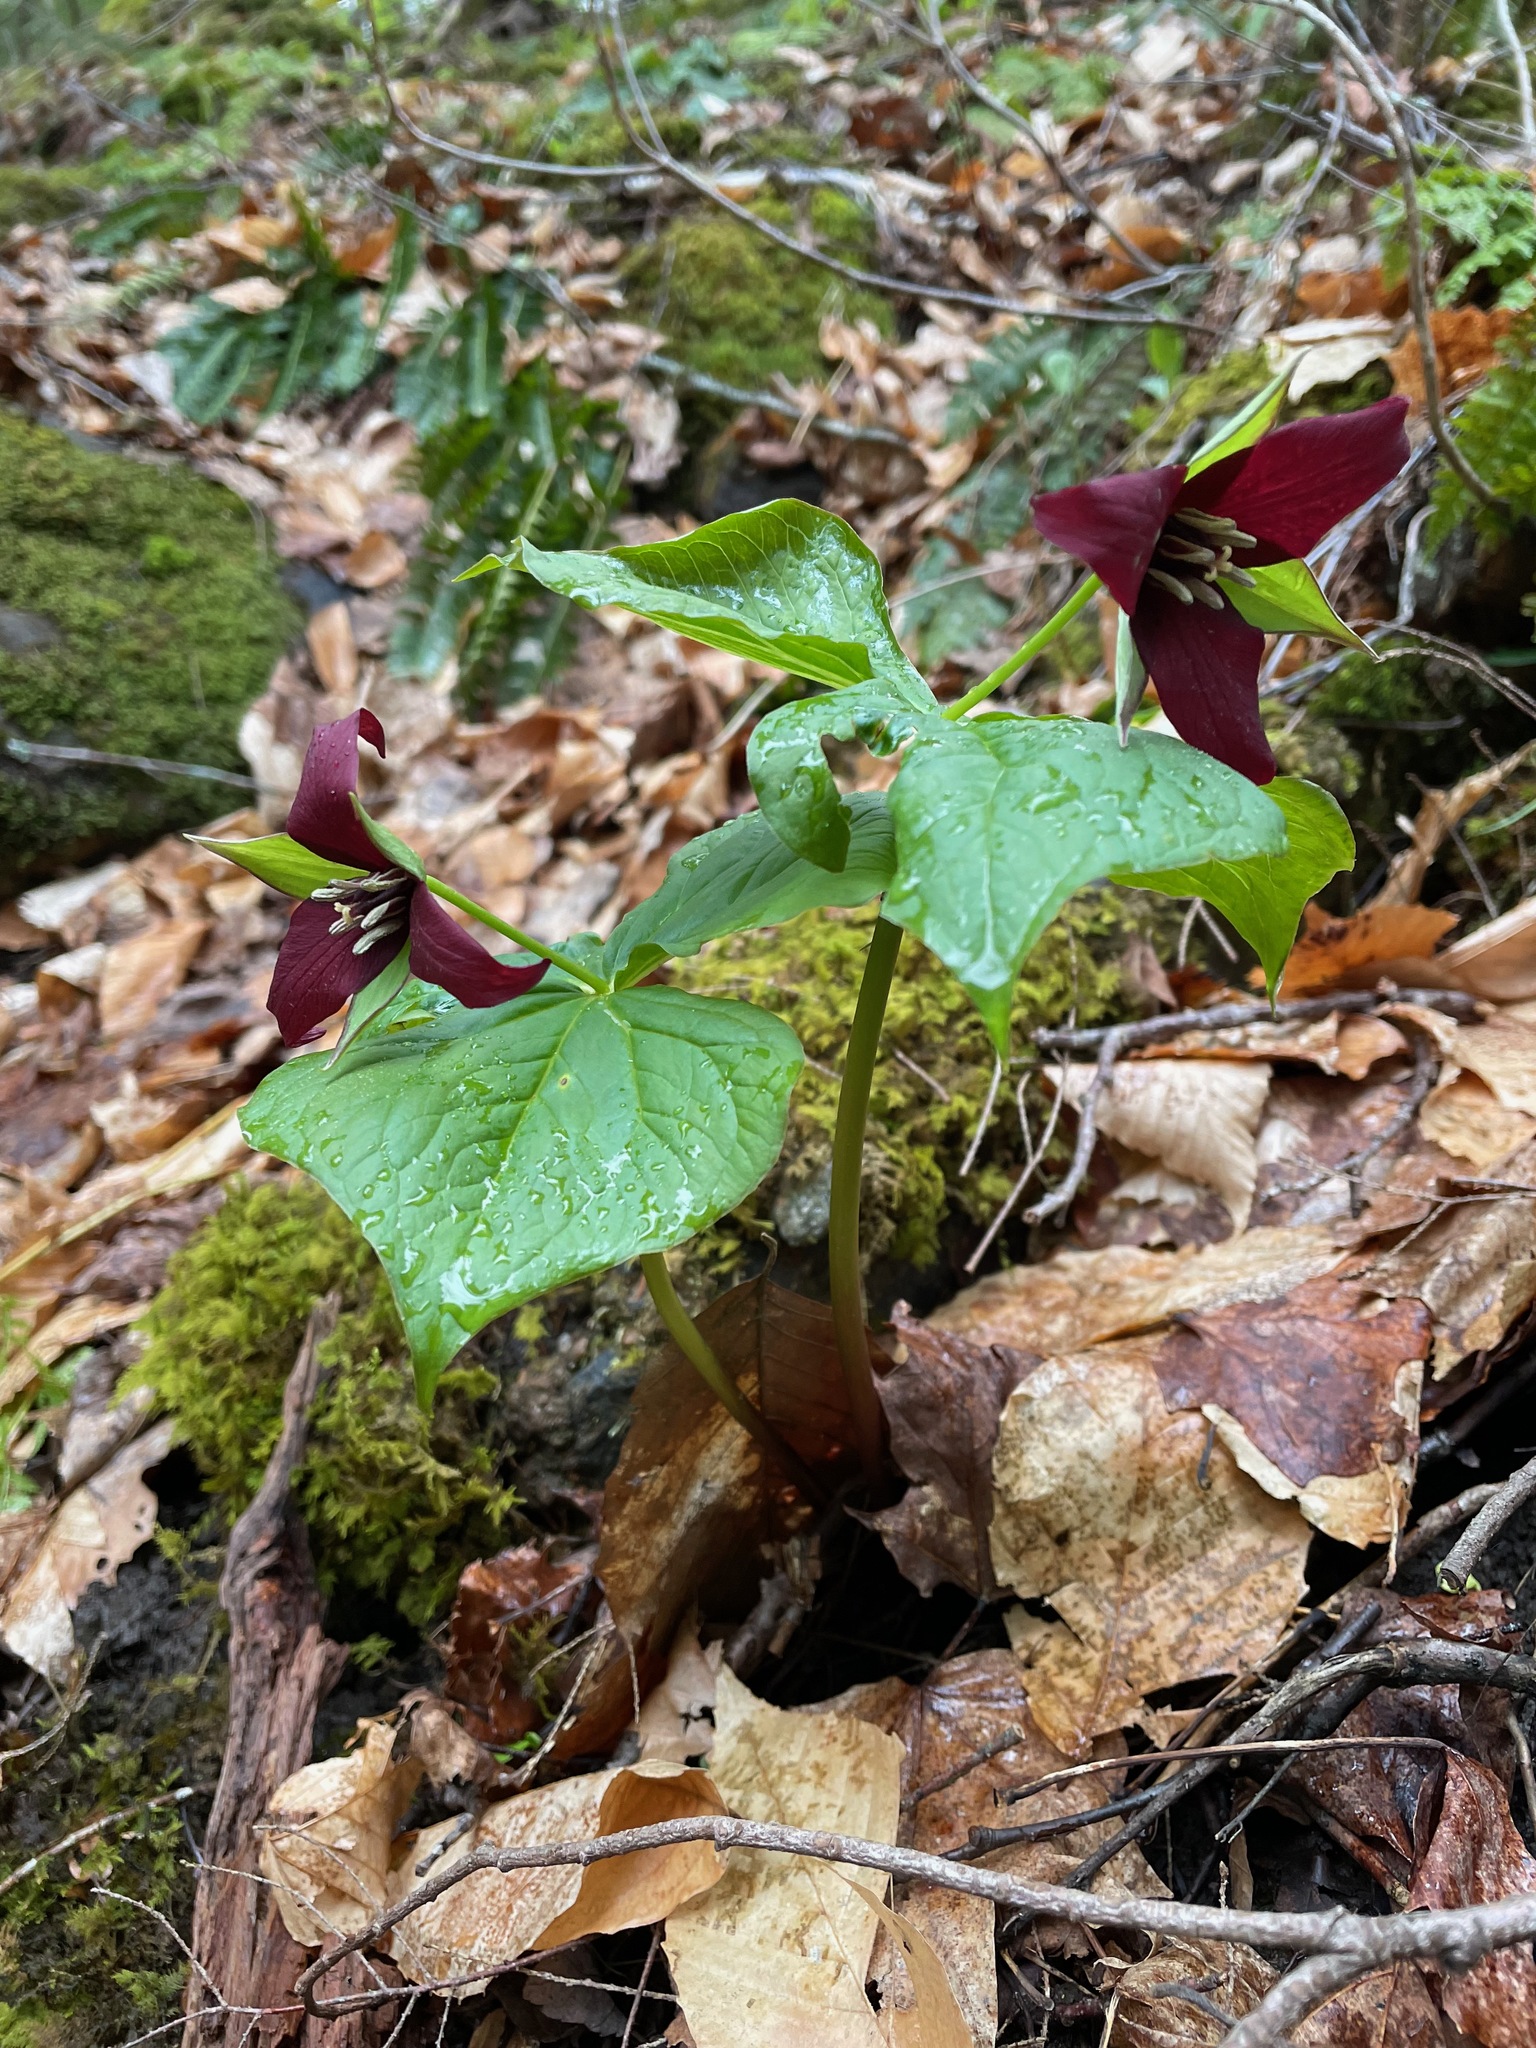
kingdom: Plantae
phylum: Tracheophyta
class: Liliopsida
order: Liliales
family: Melanthiaceae
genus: Trillium
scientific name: Trillium erectum
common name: Purple trillium
